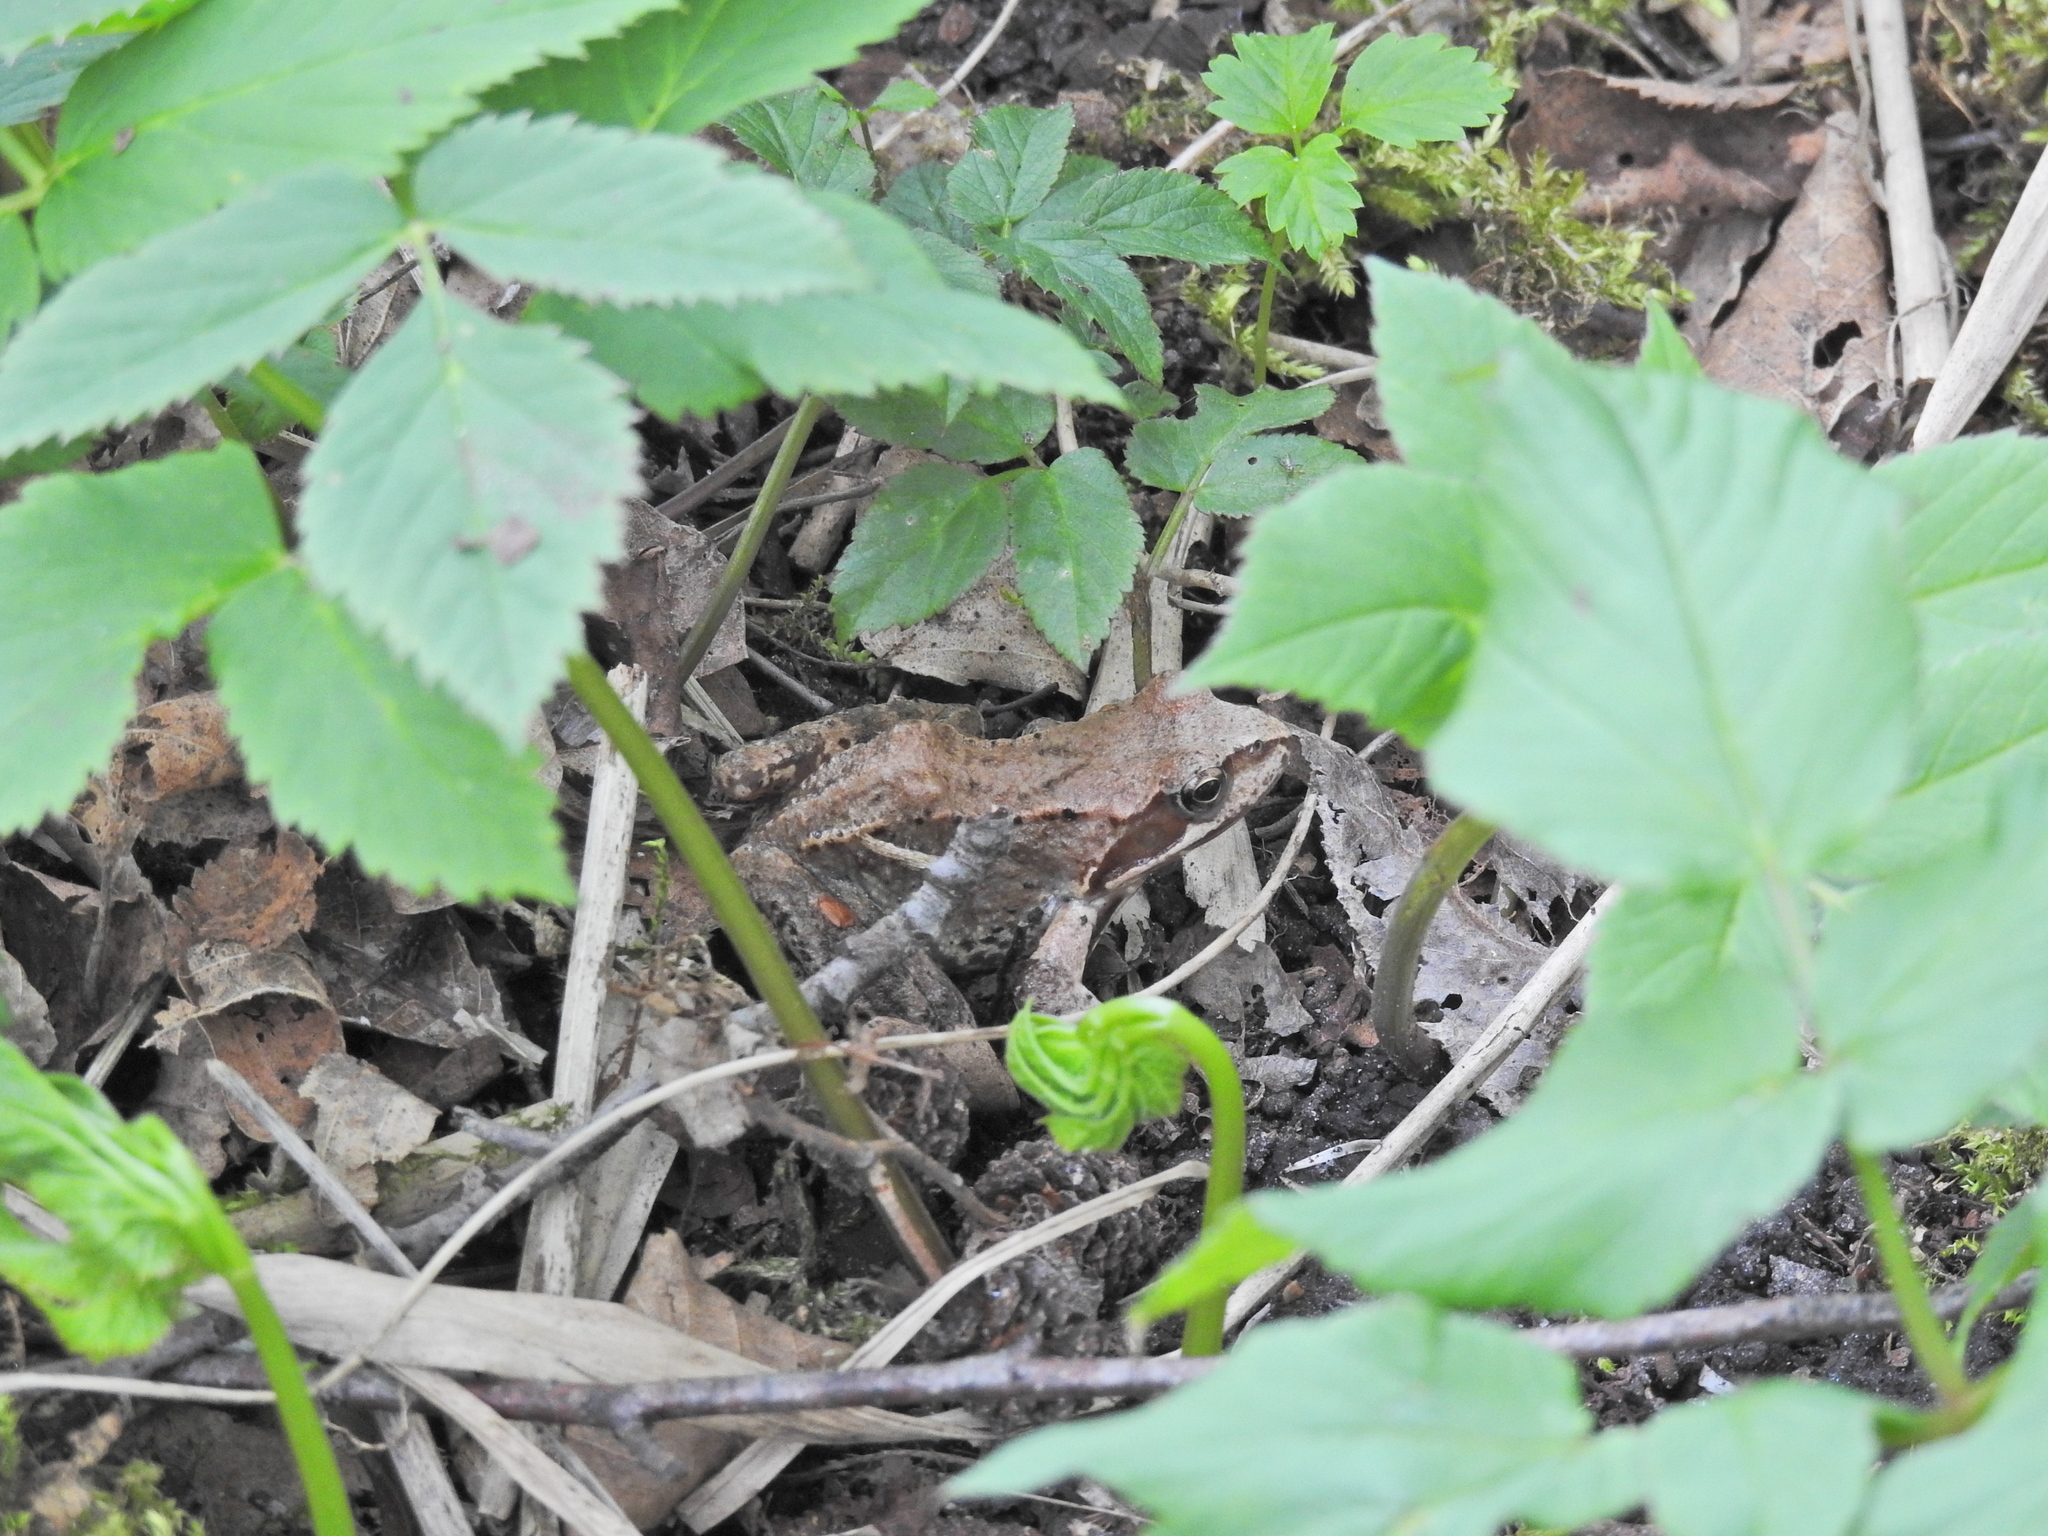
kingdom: Animalia
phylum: Chordata
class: Amphibia
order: Anura
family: Ranidae
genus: Rana
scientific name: Rana temporaria
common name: Common frog
